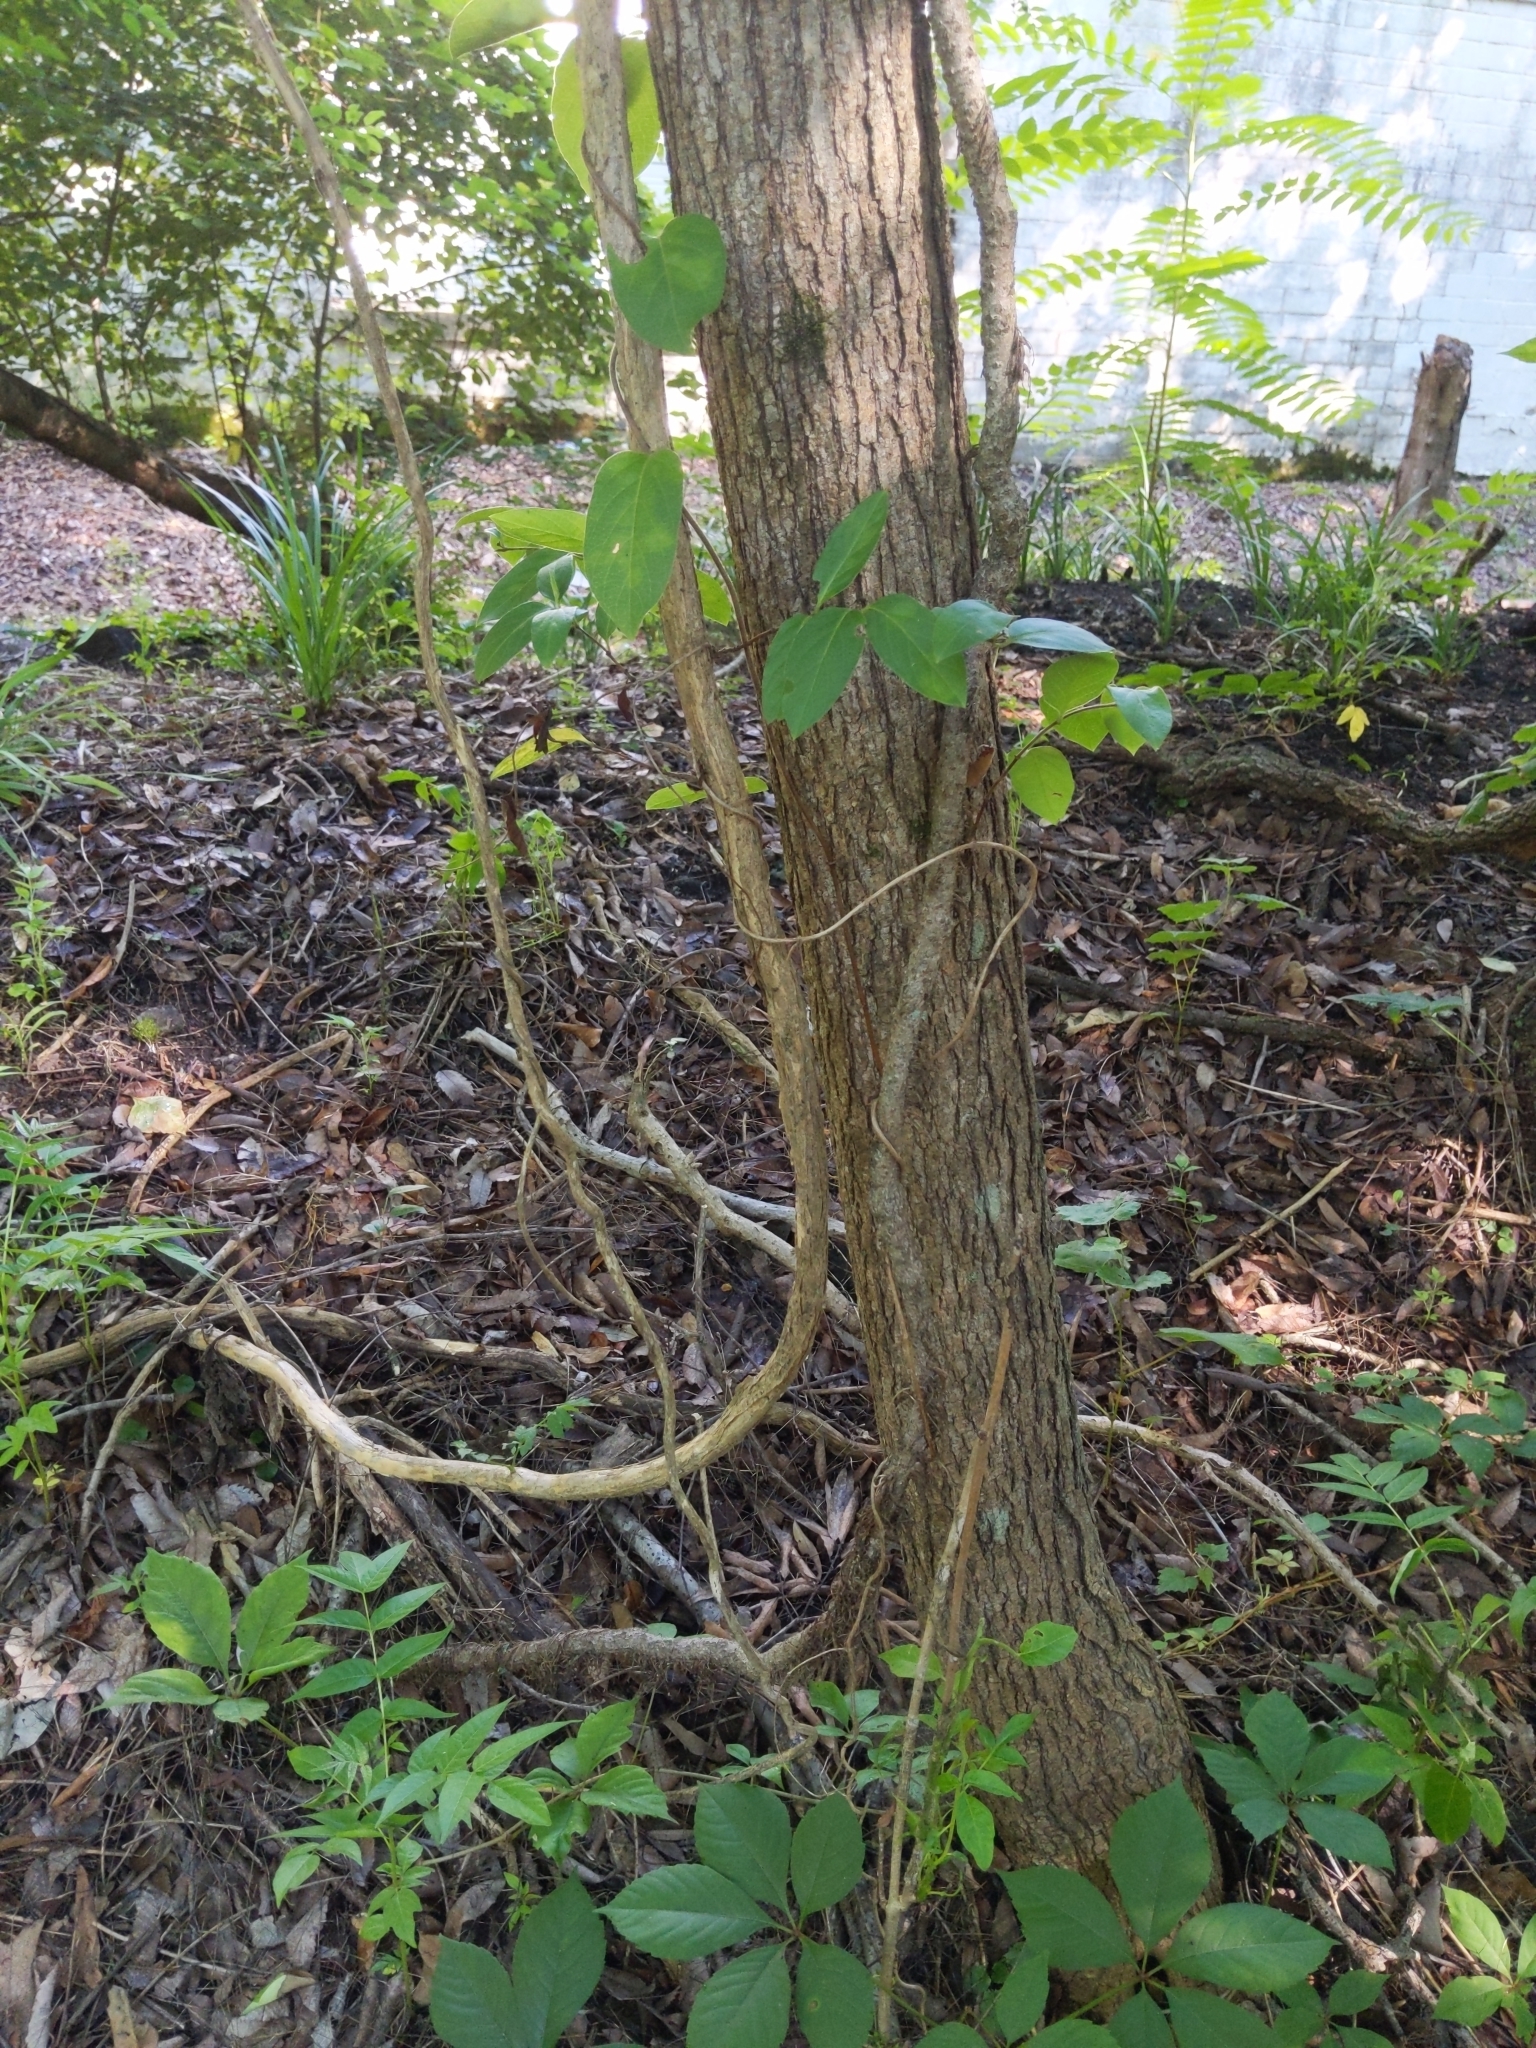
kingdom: Plantae
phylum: Tracheophyta
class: Magnoliopsida
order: Lamiales
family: Bignoniaceae
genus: Campsis
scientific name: Campsis radicans
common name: Trumpet-creeper
